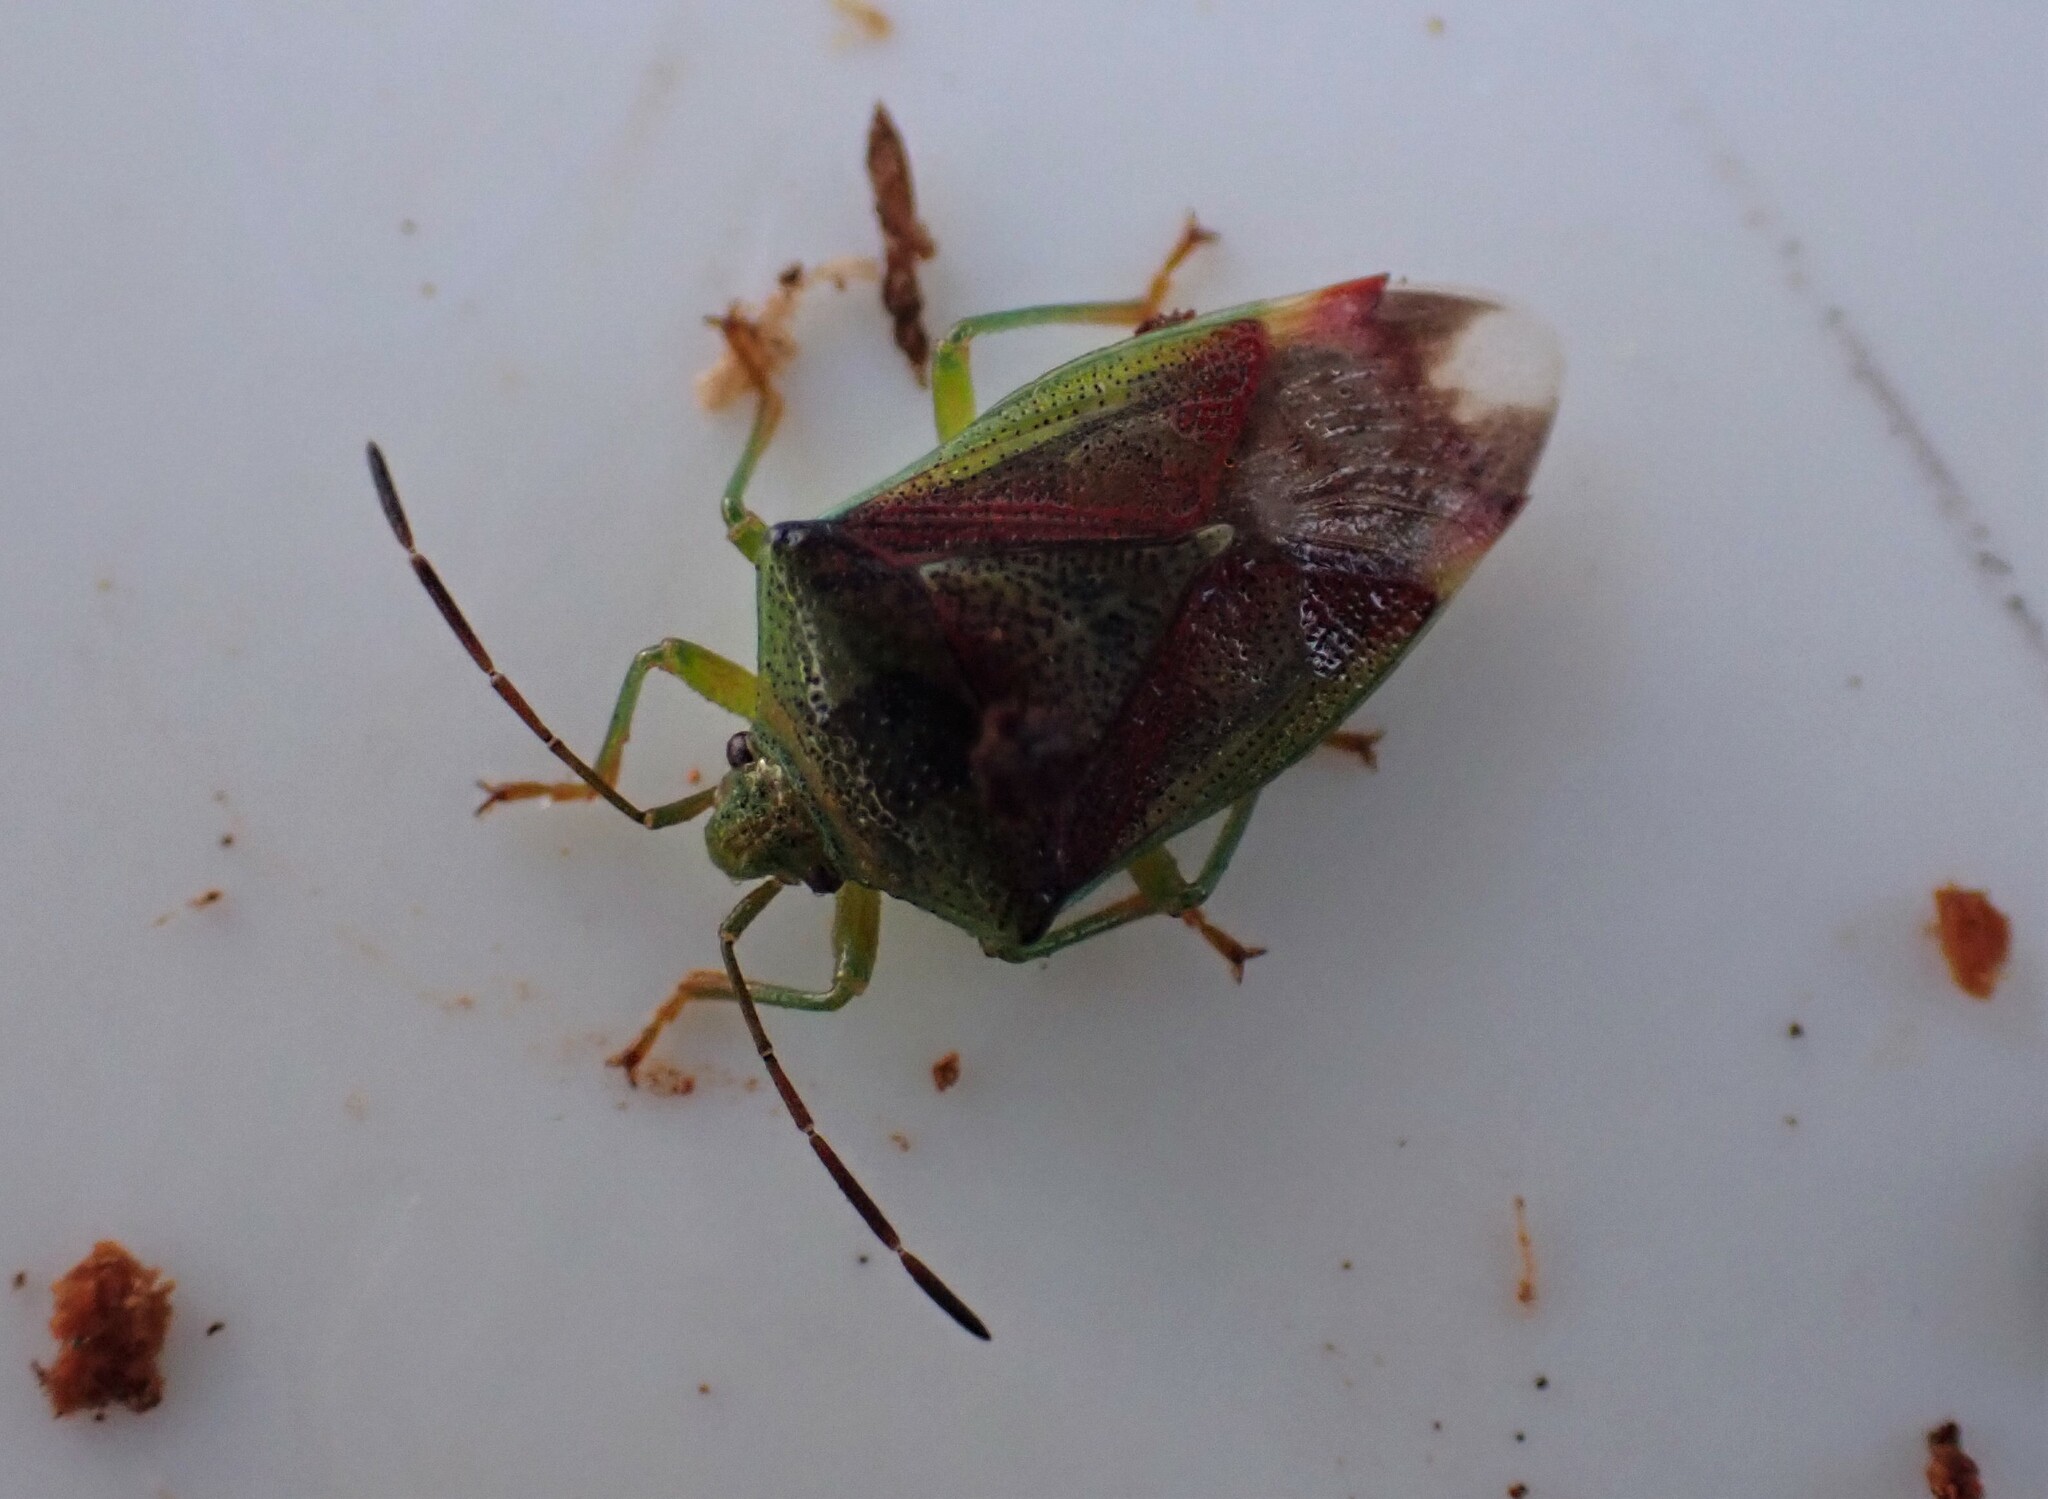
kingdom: Animalia
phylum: Arthropoda
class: Insecta
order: Hemiptera
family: Acanthosomatidae
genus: Elasmostethus
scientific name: Elasmostethus
